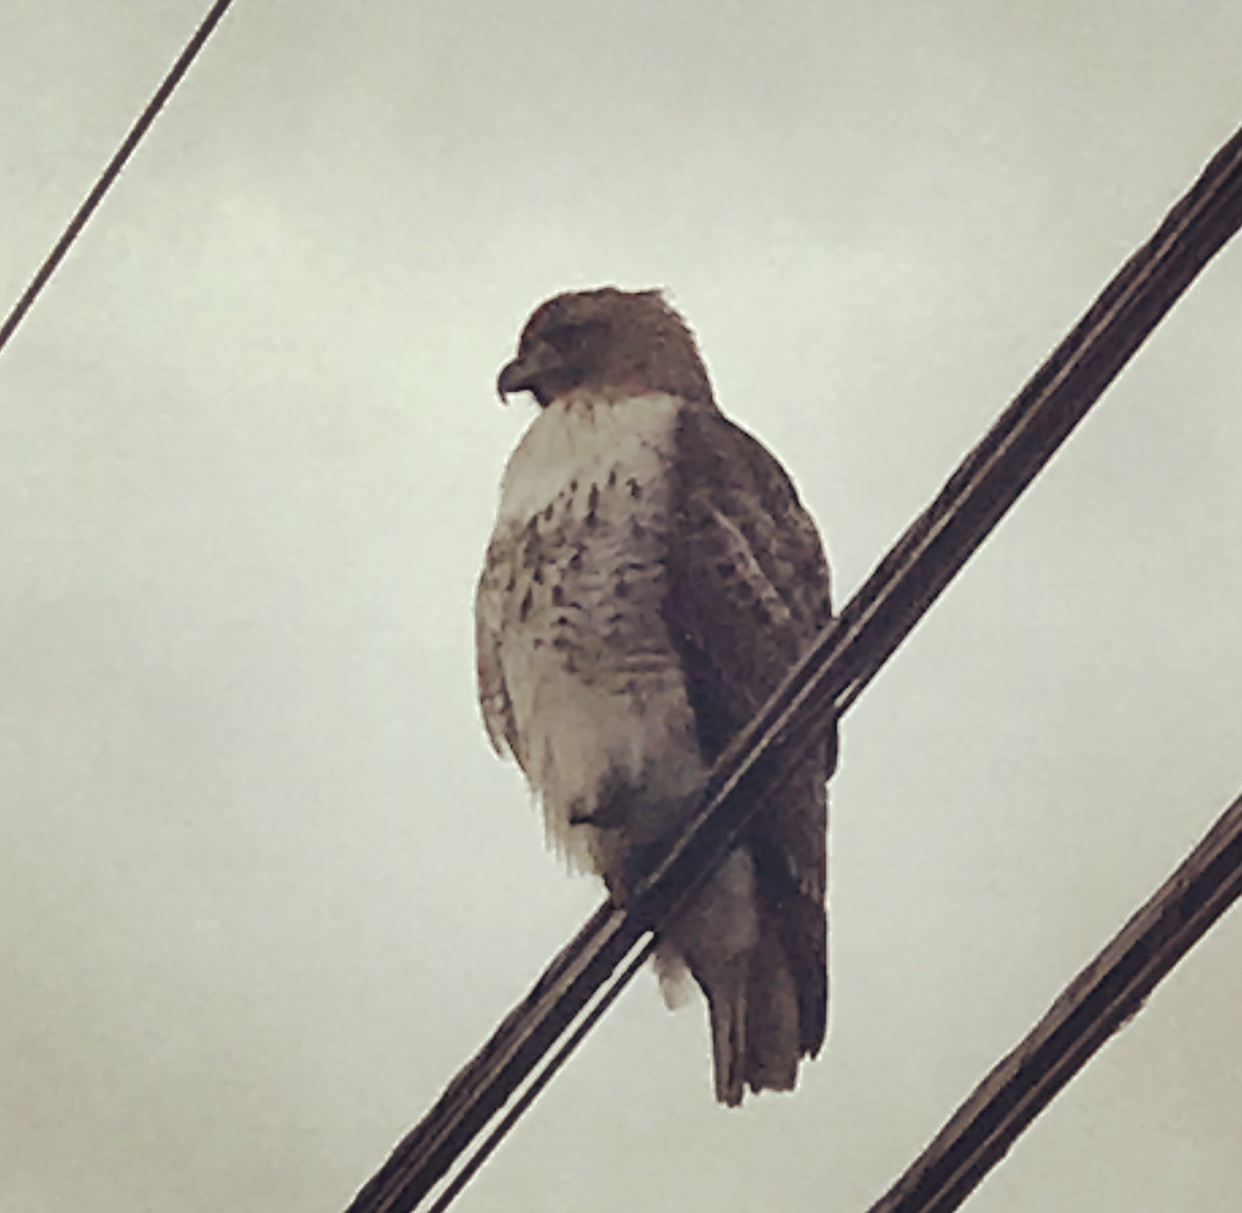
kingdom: Animalia
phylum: Chordata
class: Aves
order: Accipitriformes
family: Accipitridae
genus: Buteo
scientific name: Buteo jamaicensis
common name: Red-tailed hawk
